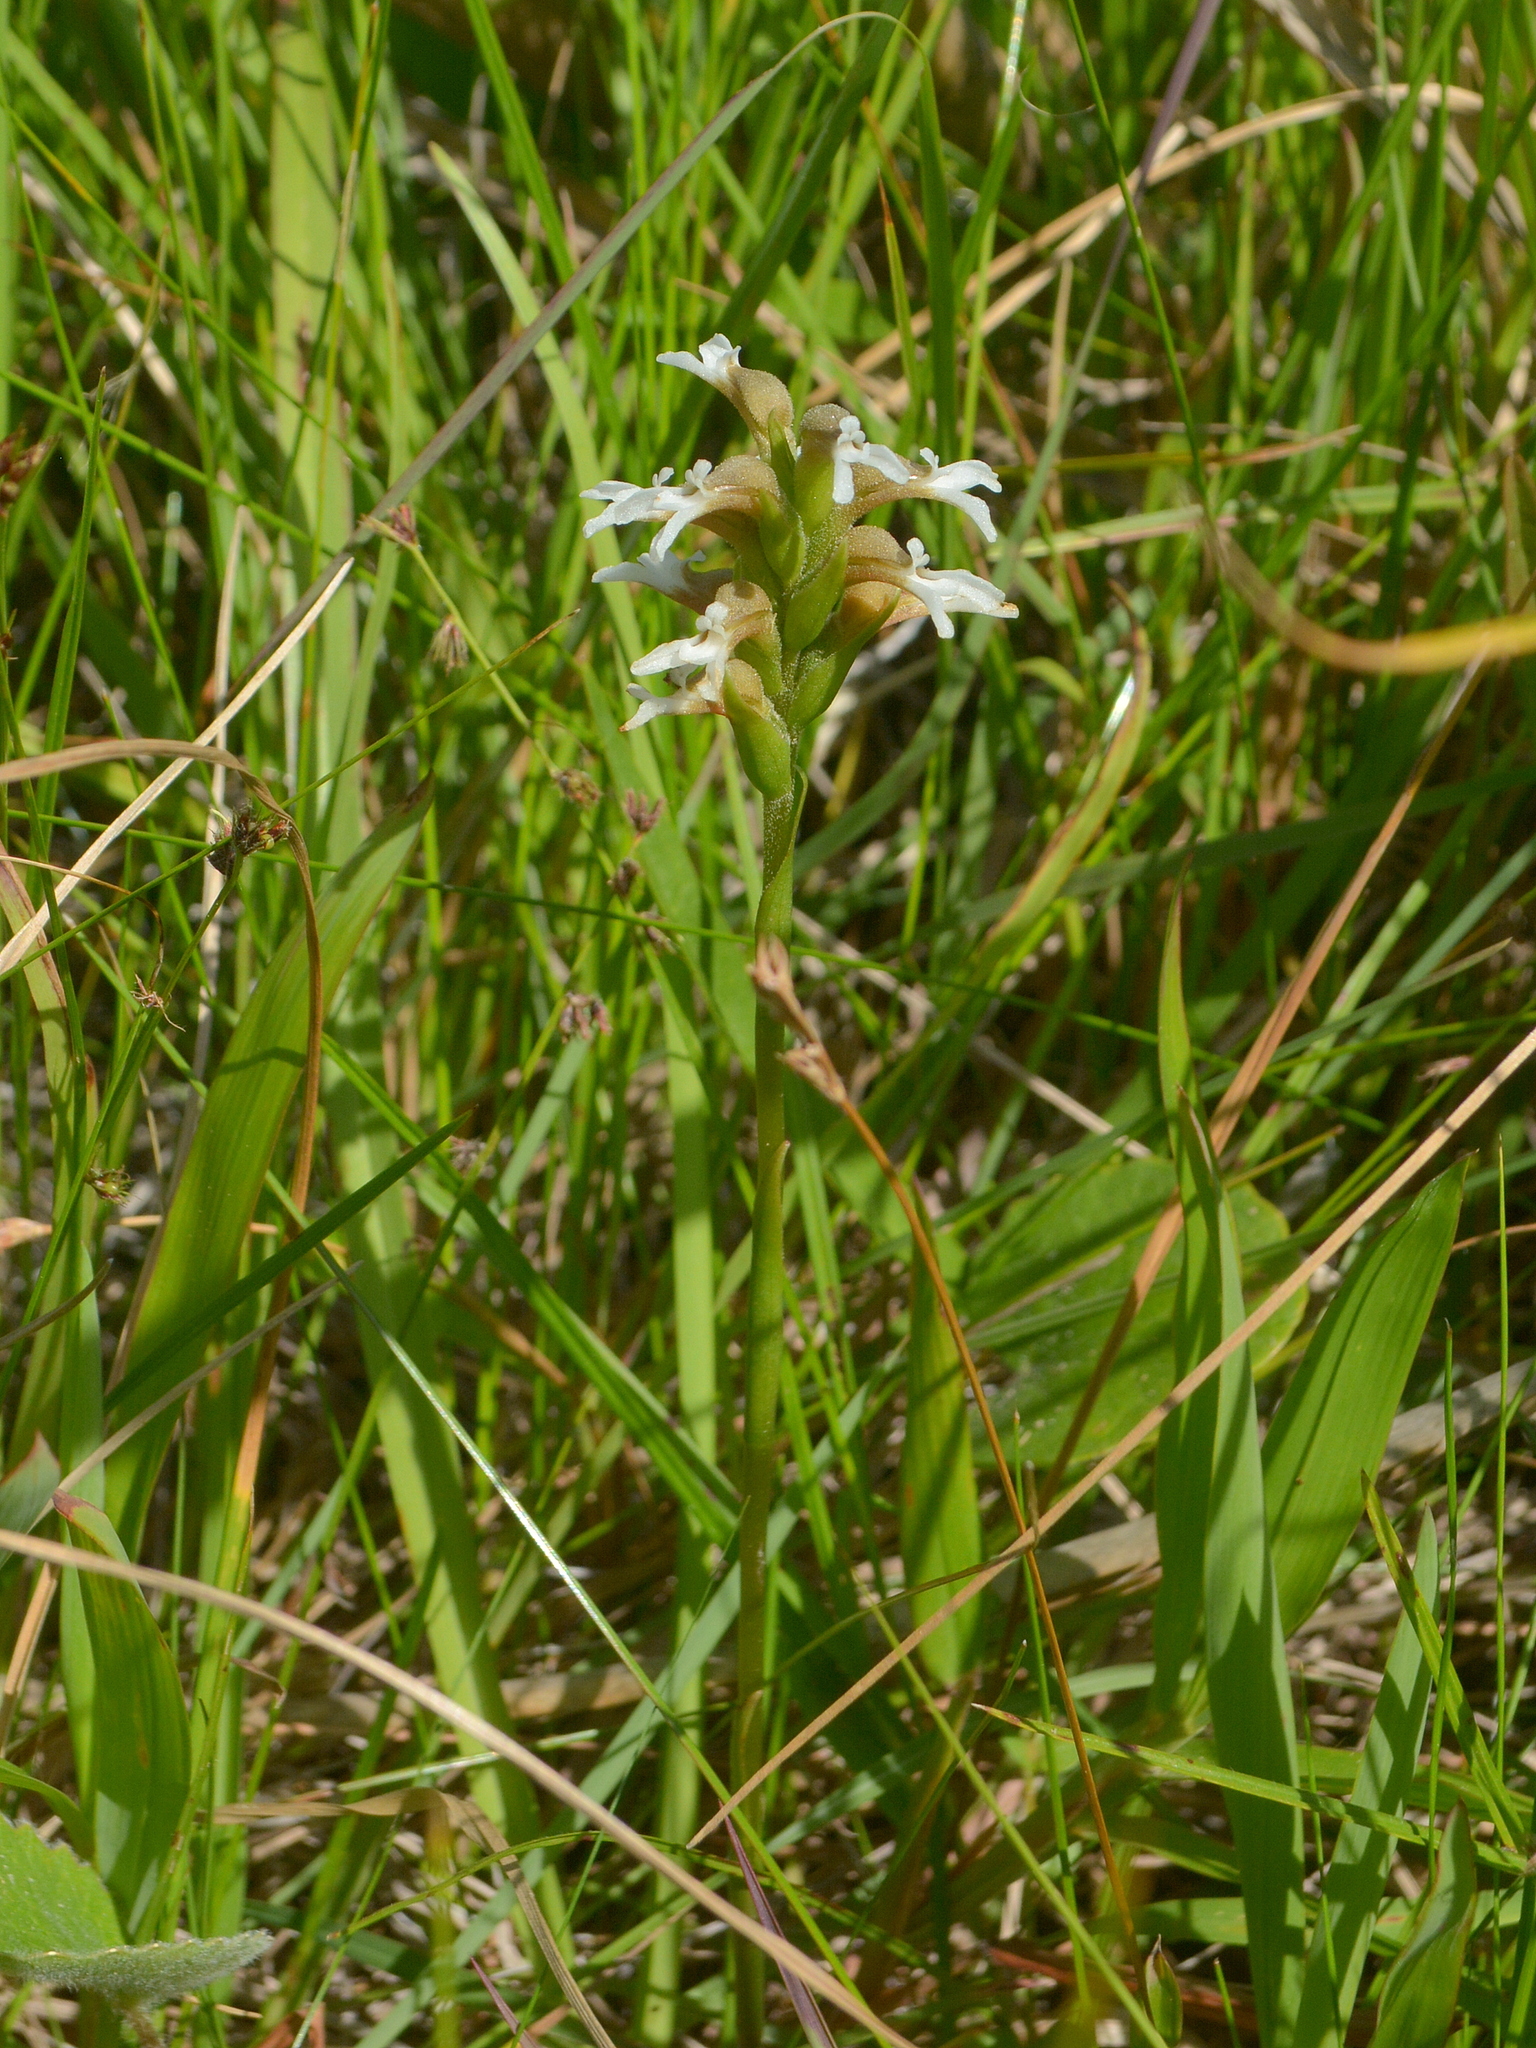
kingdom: Plantae
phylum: Tracheophyta
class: Liliopsida
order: Asparagales
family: Orchidaceae
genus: Veyretia
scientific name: Veyretia hassleri
